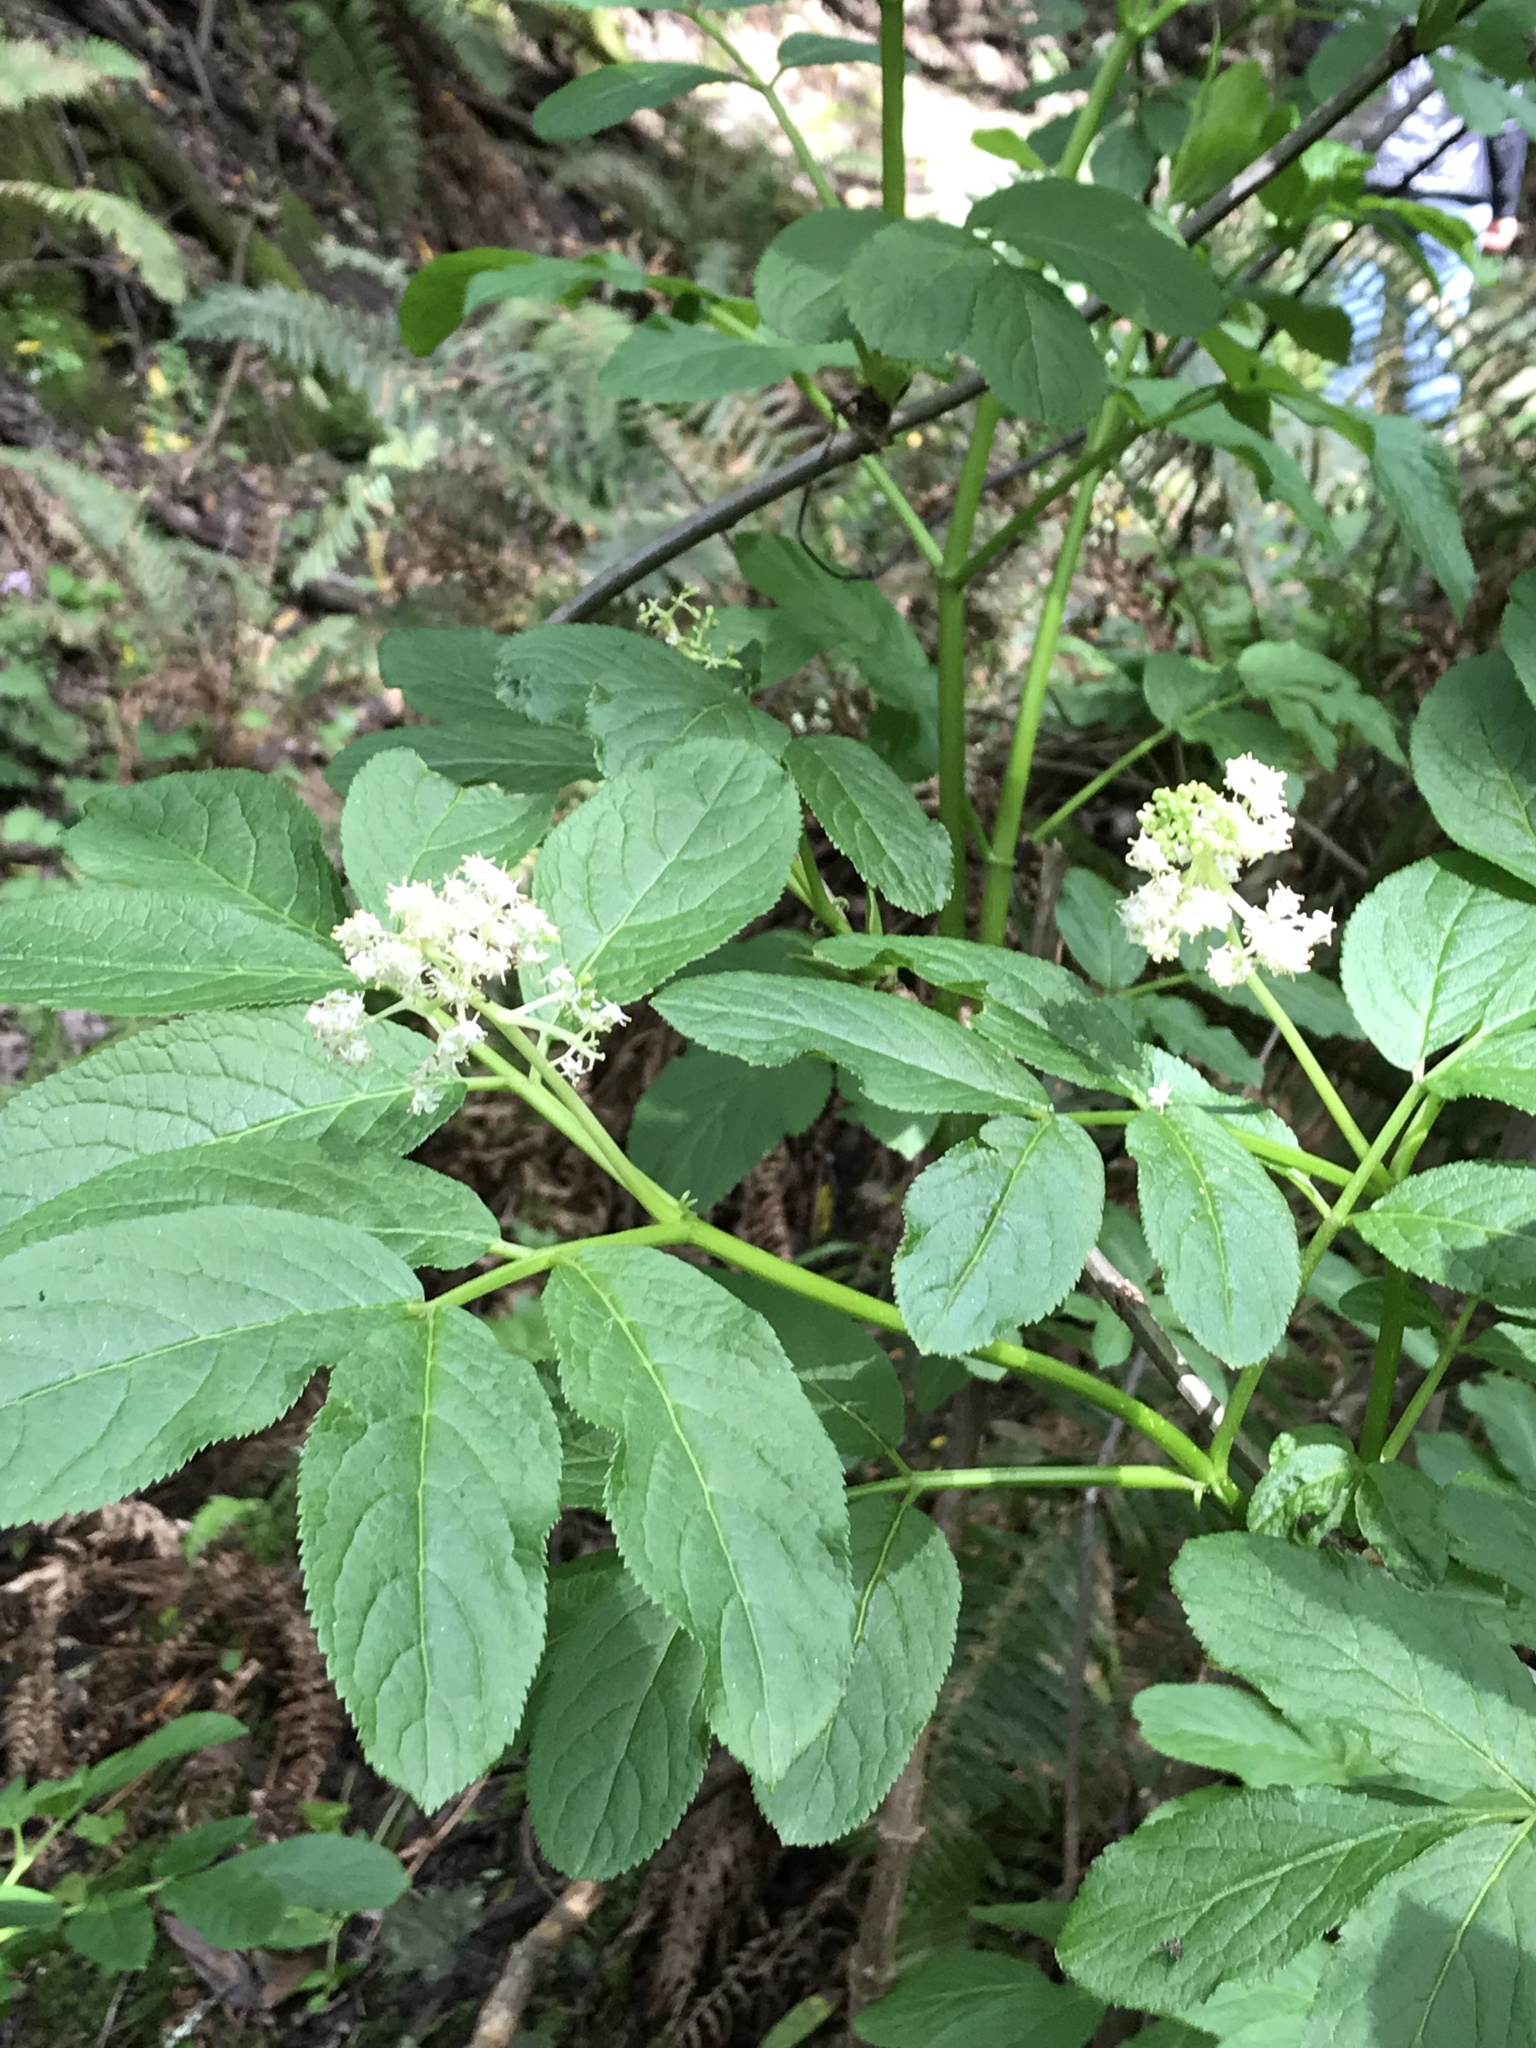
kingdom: Plantae
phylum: Tracheophyta
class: Magnoliopsida
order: Dipsacales
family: Viburnaceae
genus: Sambucus
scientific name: Sambucus racemosa
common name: Red-berried elder
